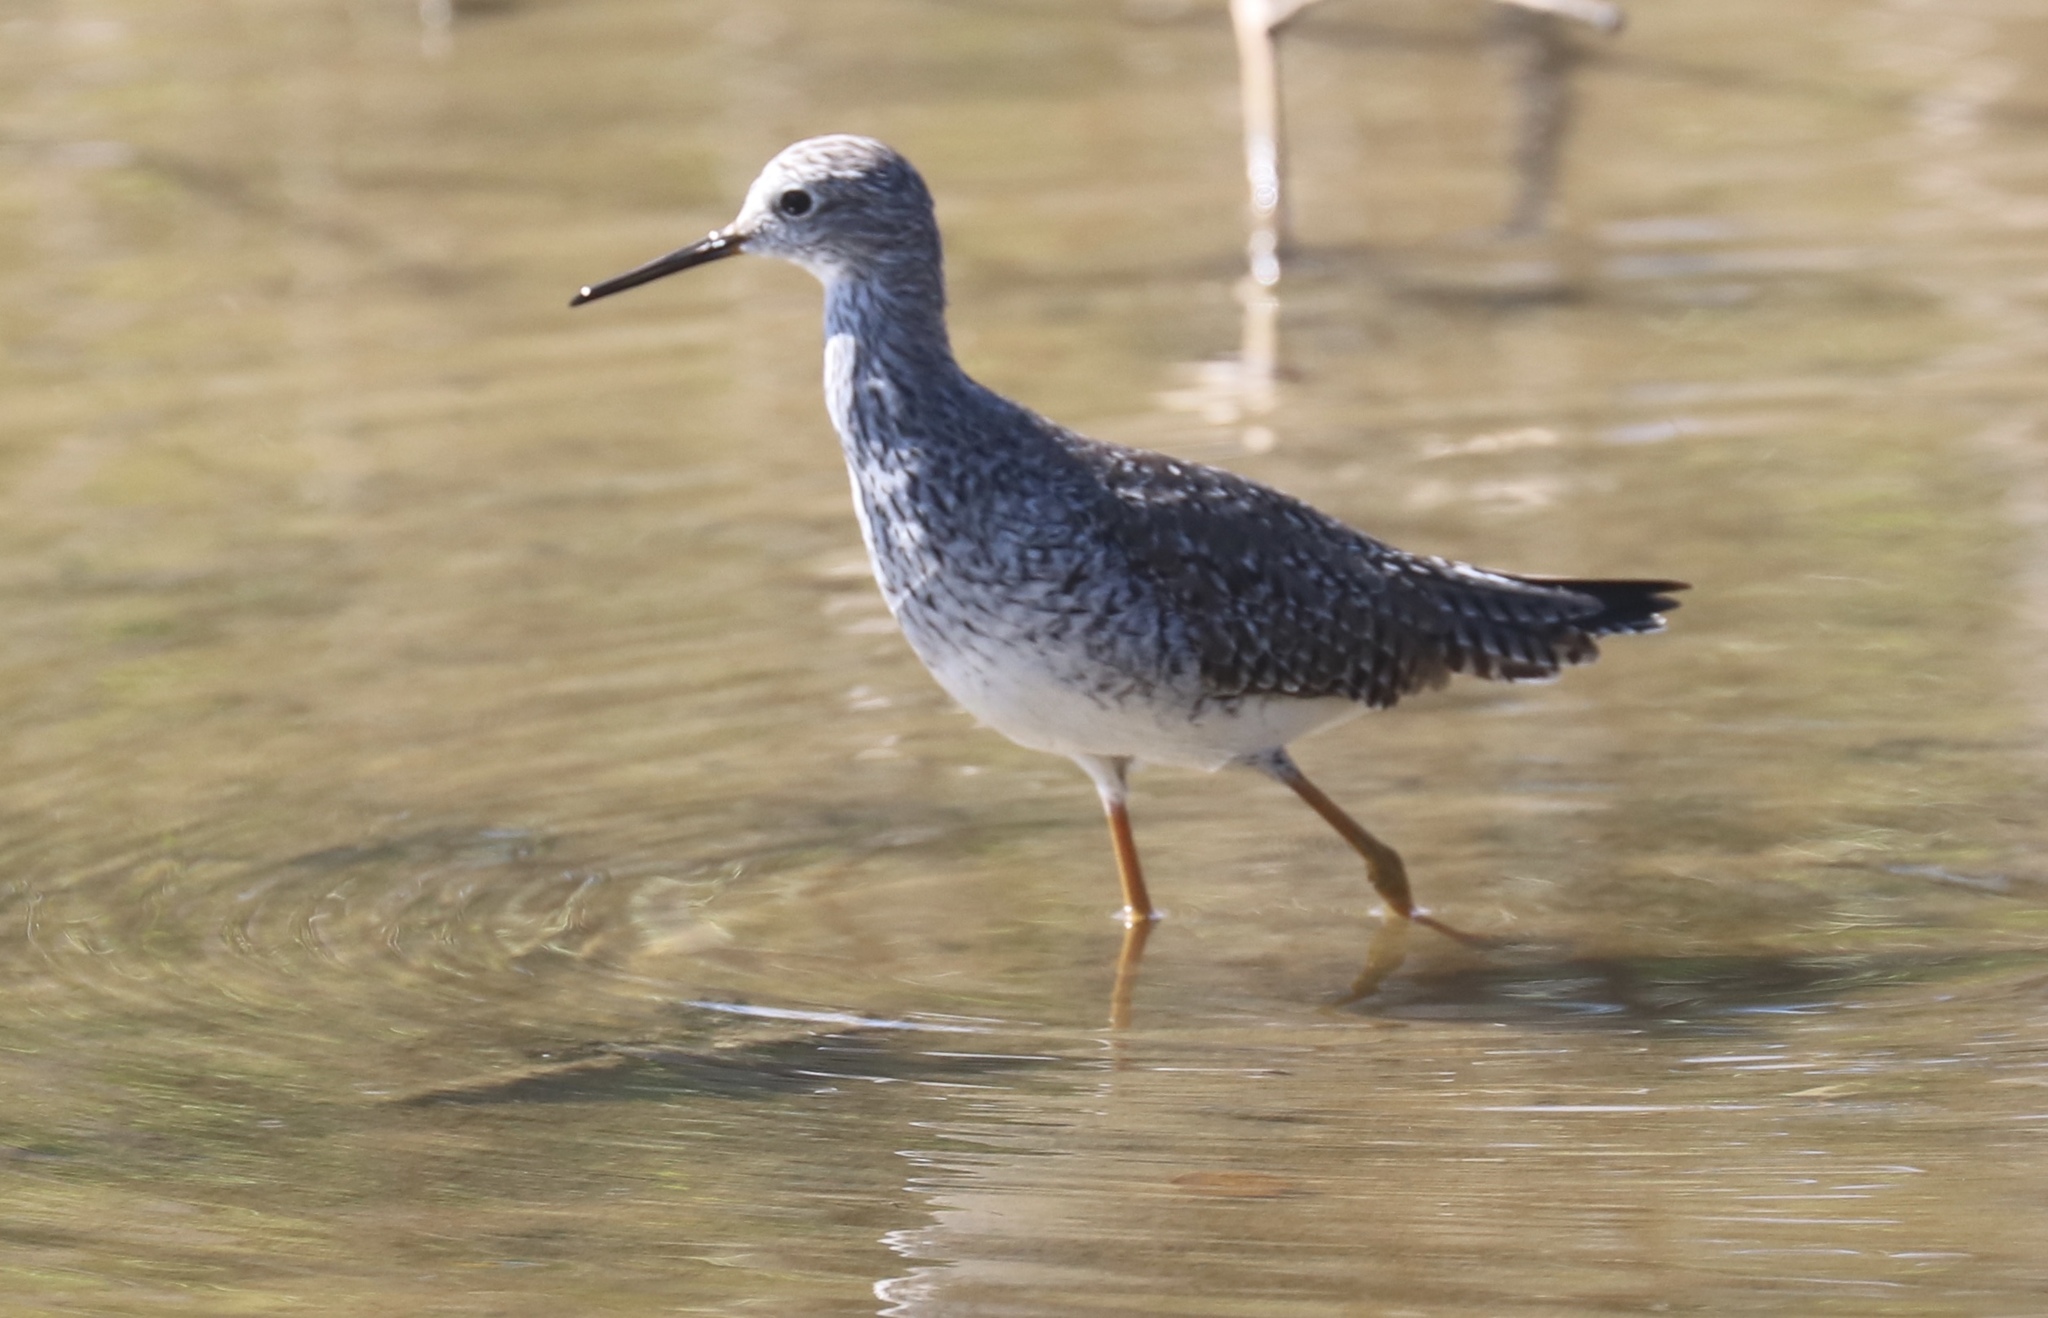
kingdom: Animalia
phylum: Chordata
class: Aves
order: Charadriiformes
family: Scolopacidae
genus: Tringa
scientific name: Tringa flavipes
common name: Lesser yellowlegs
